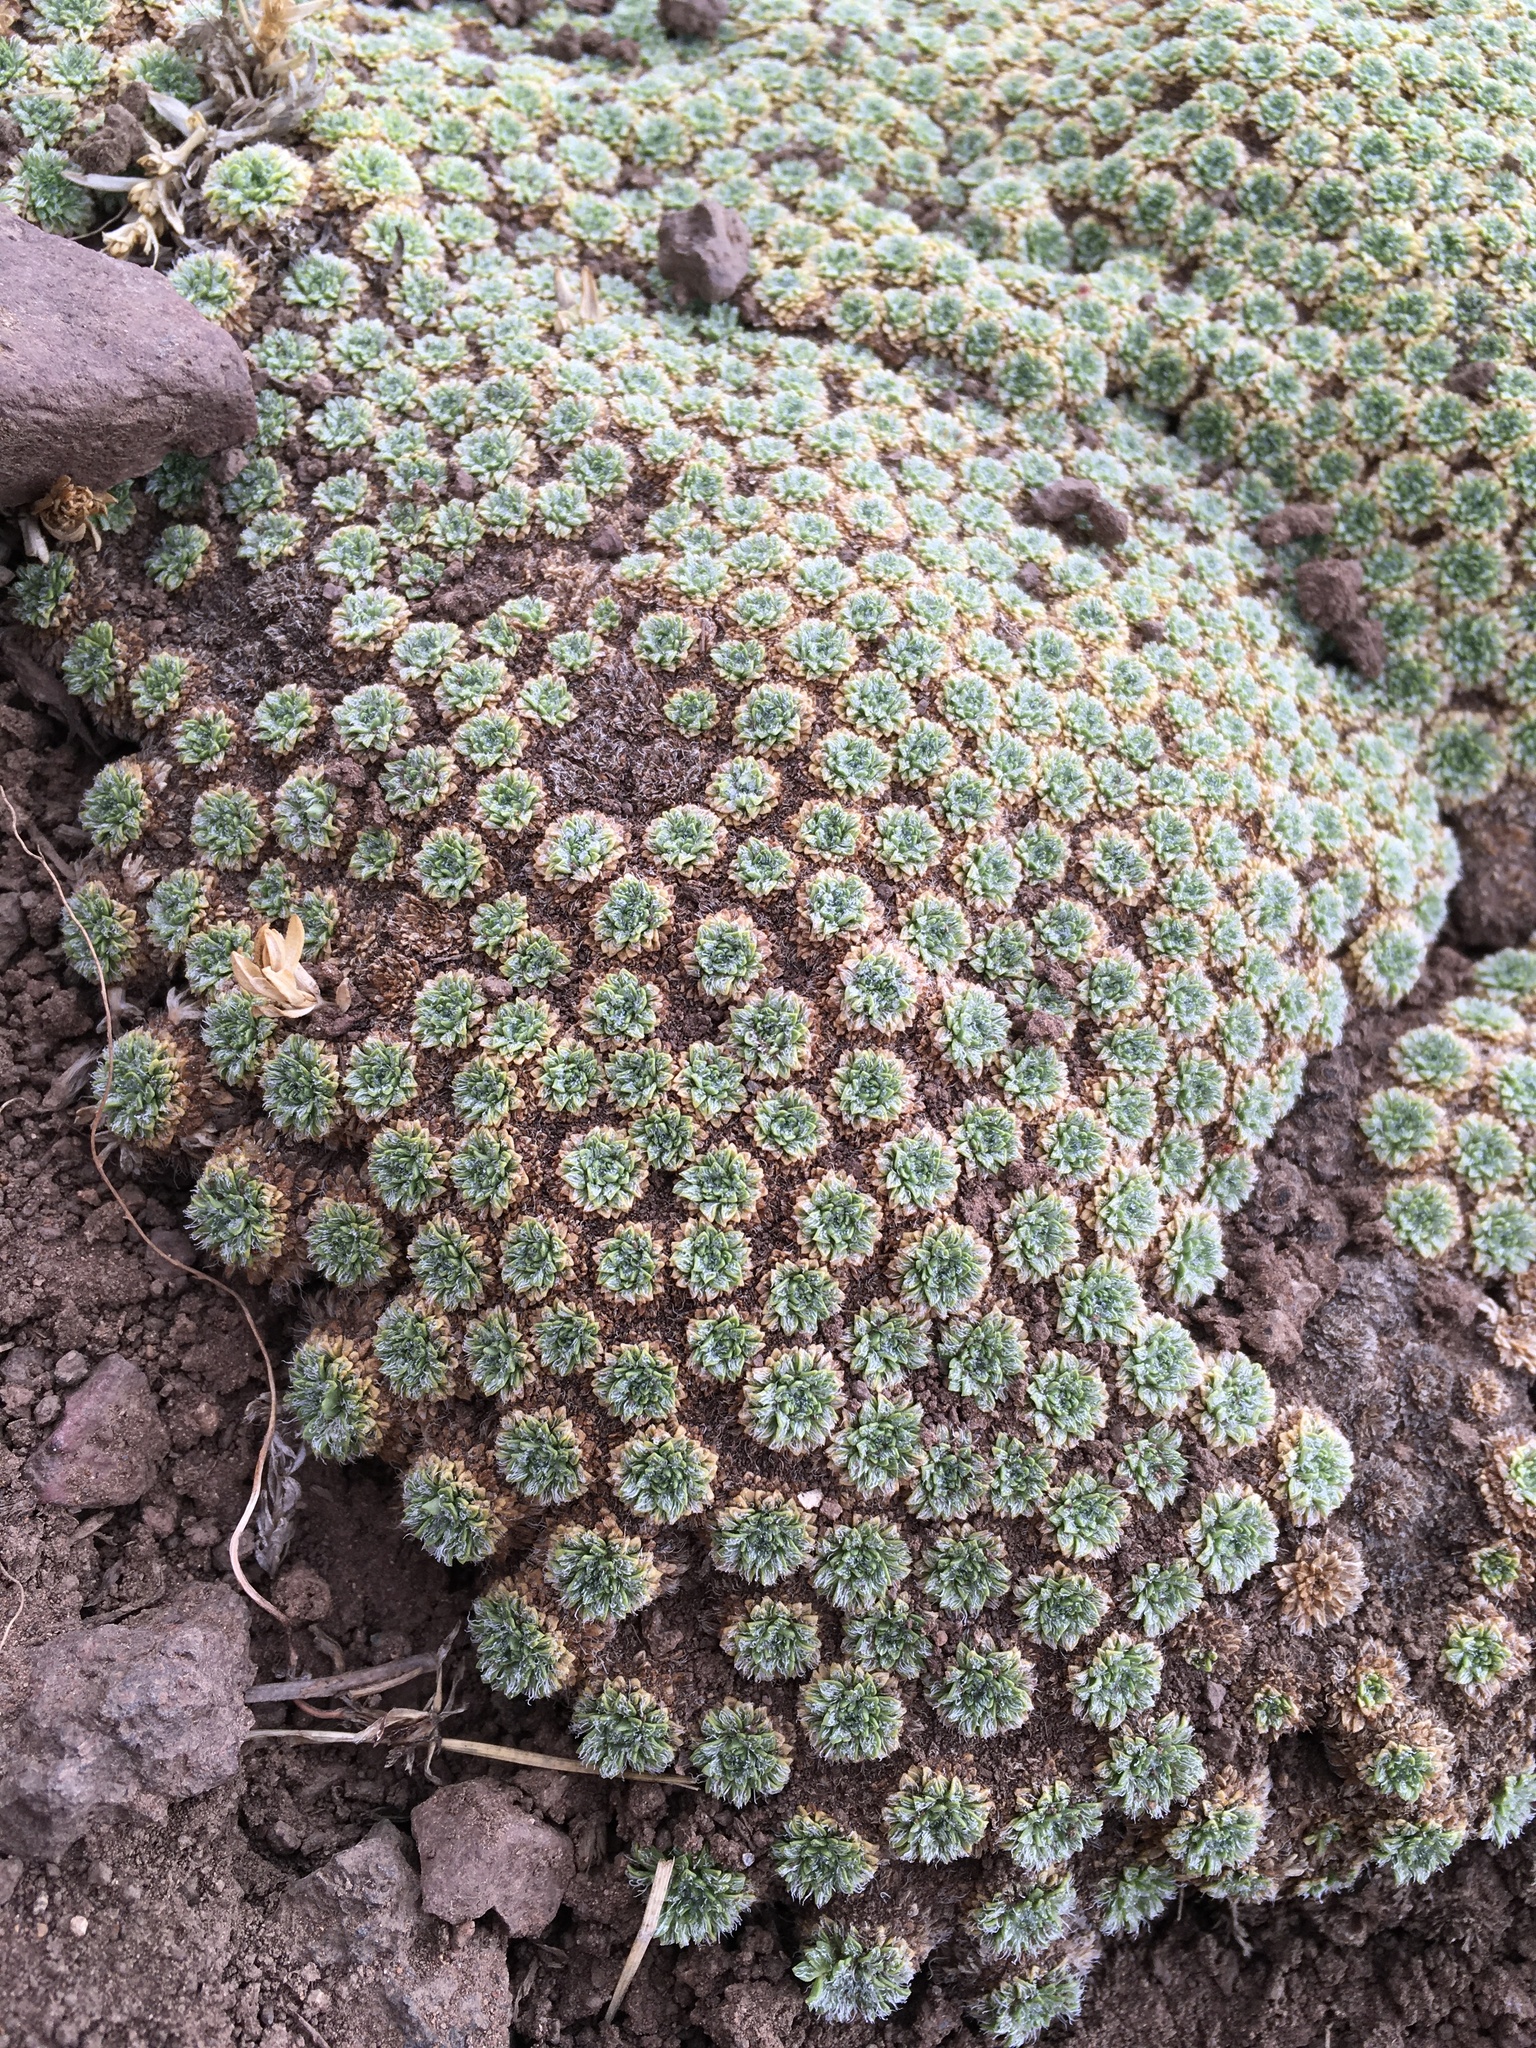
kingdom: Plantae
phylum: Tracheophyta
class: Magnoliopsida
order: Apiales
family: Apiaceae
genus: Azorella
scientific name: Azorella madreporica
